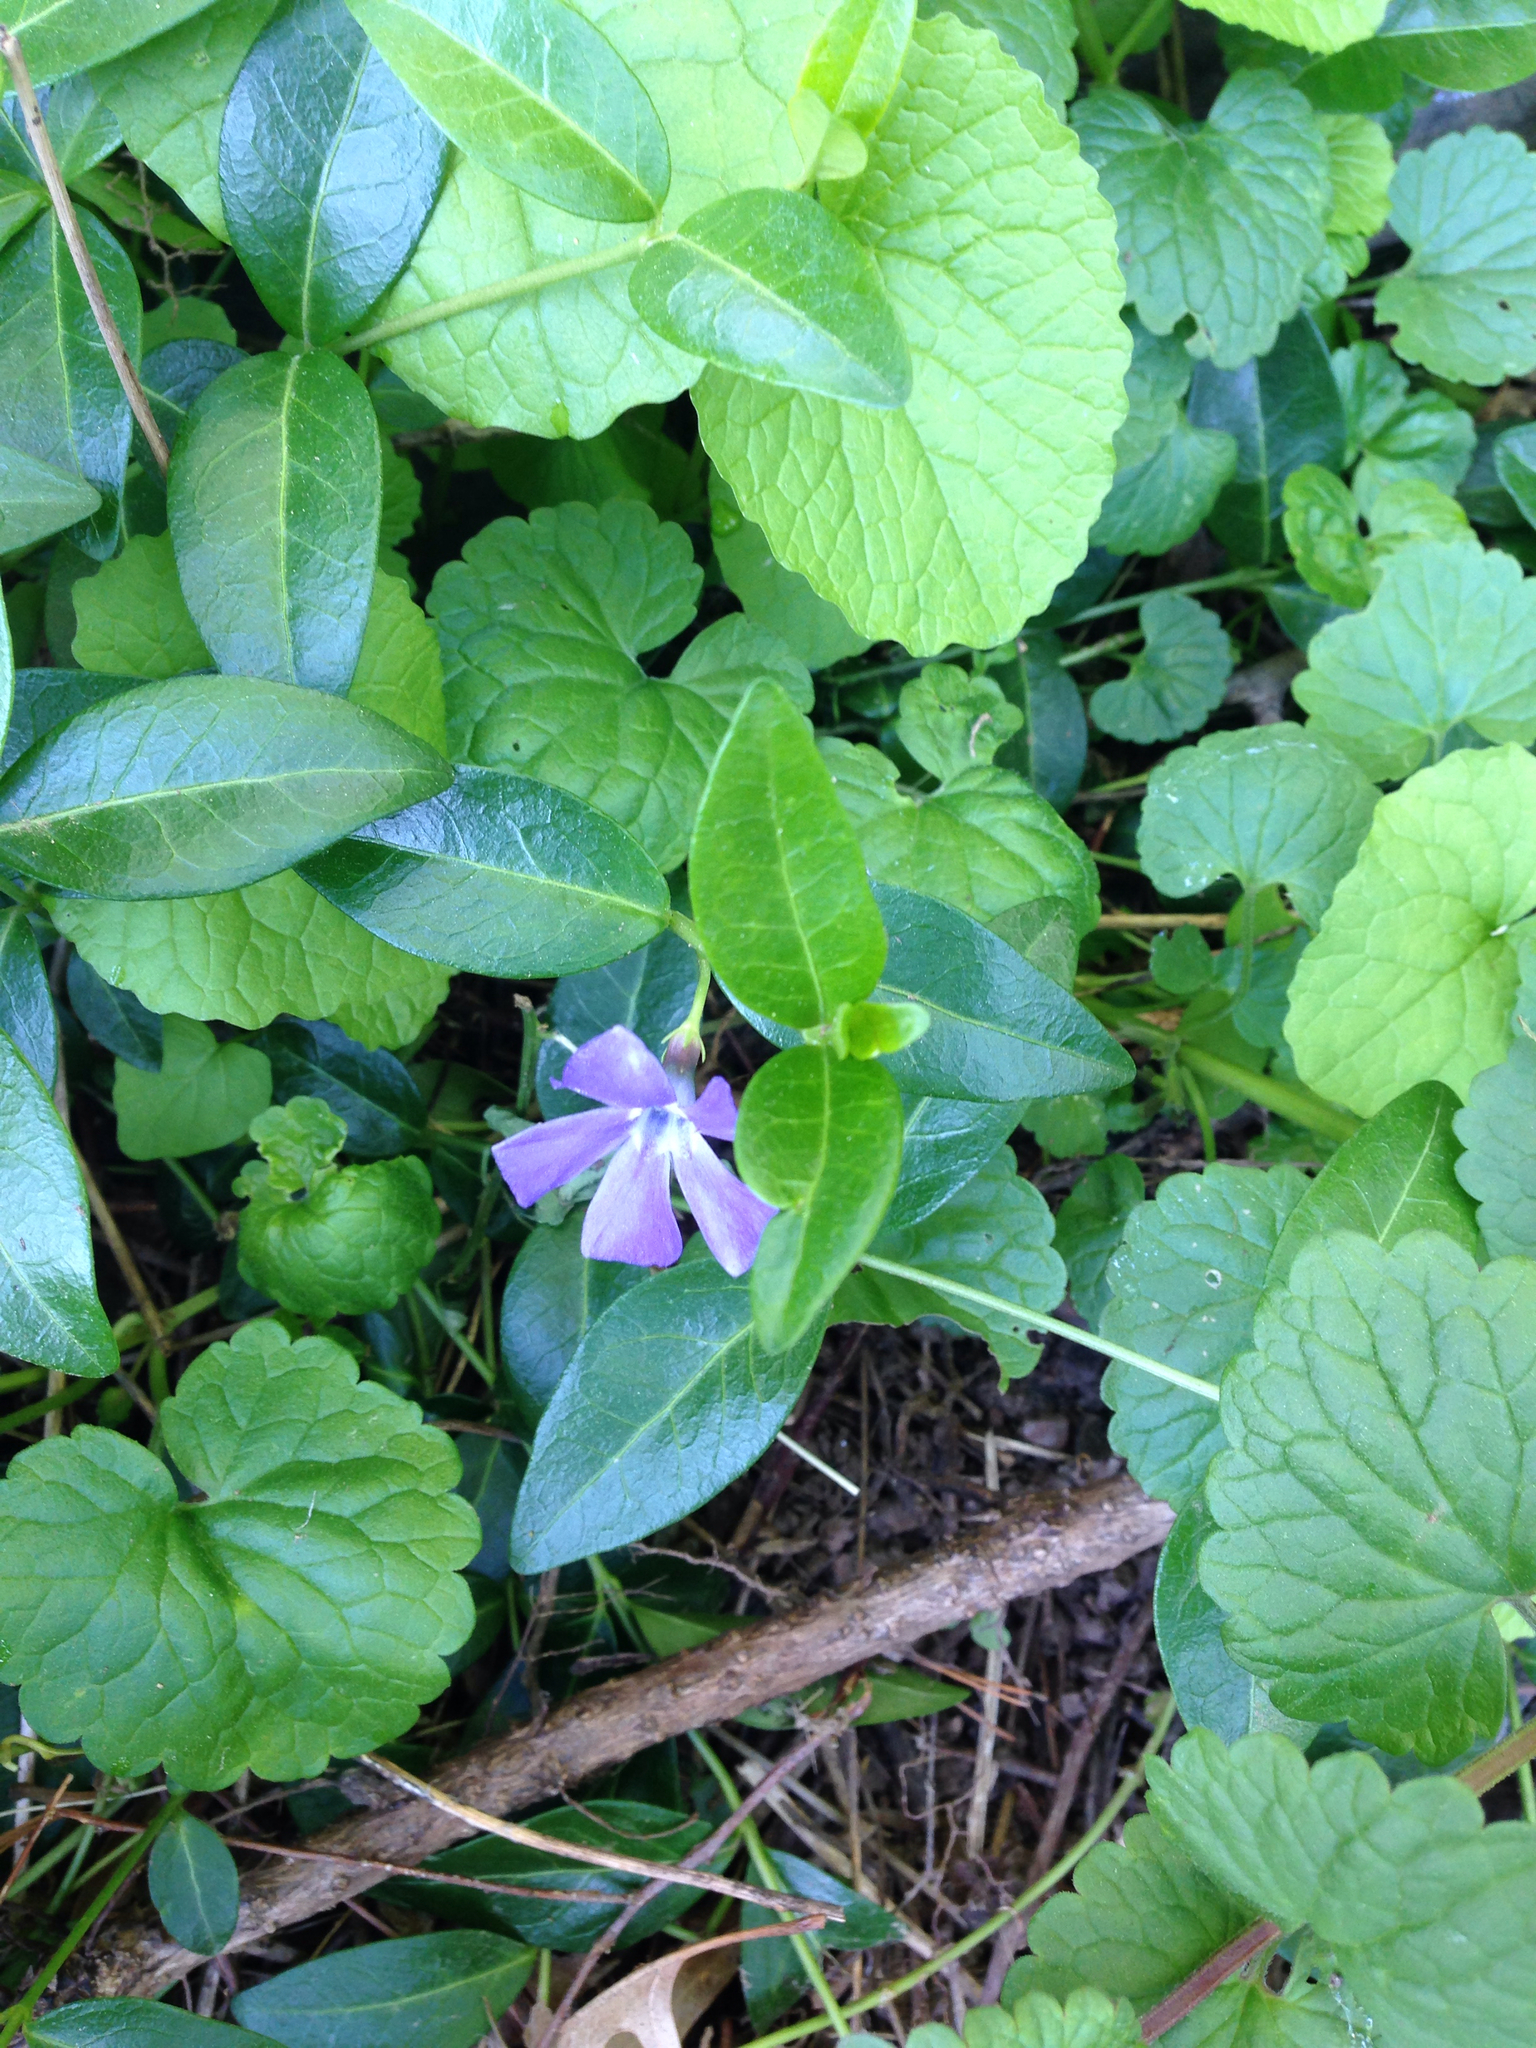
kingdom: Plantae
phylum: Tracheophyta
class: Magnoliopsida
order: Gentianales
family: Apocynaceae
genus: Vinca
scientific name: Vinca minor
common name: Lesser periwinkle
